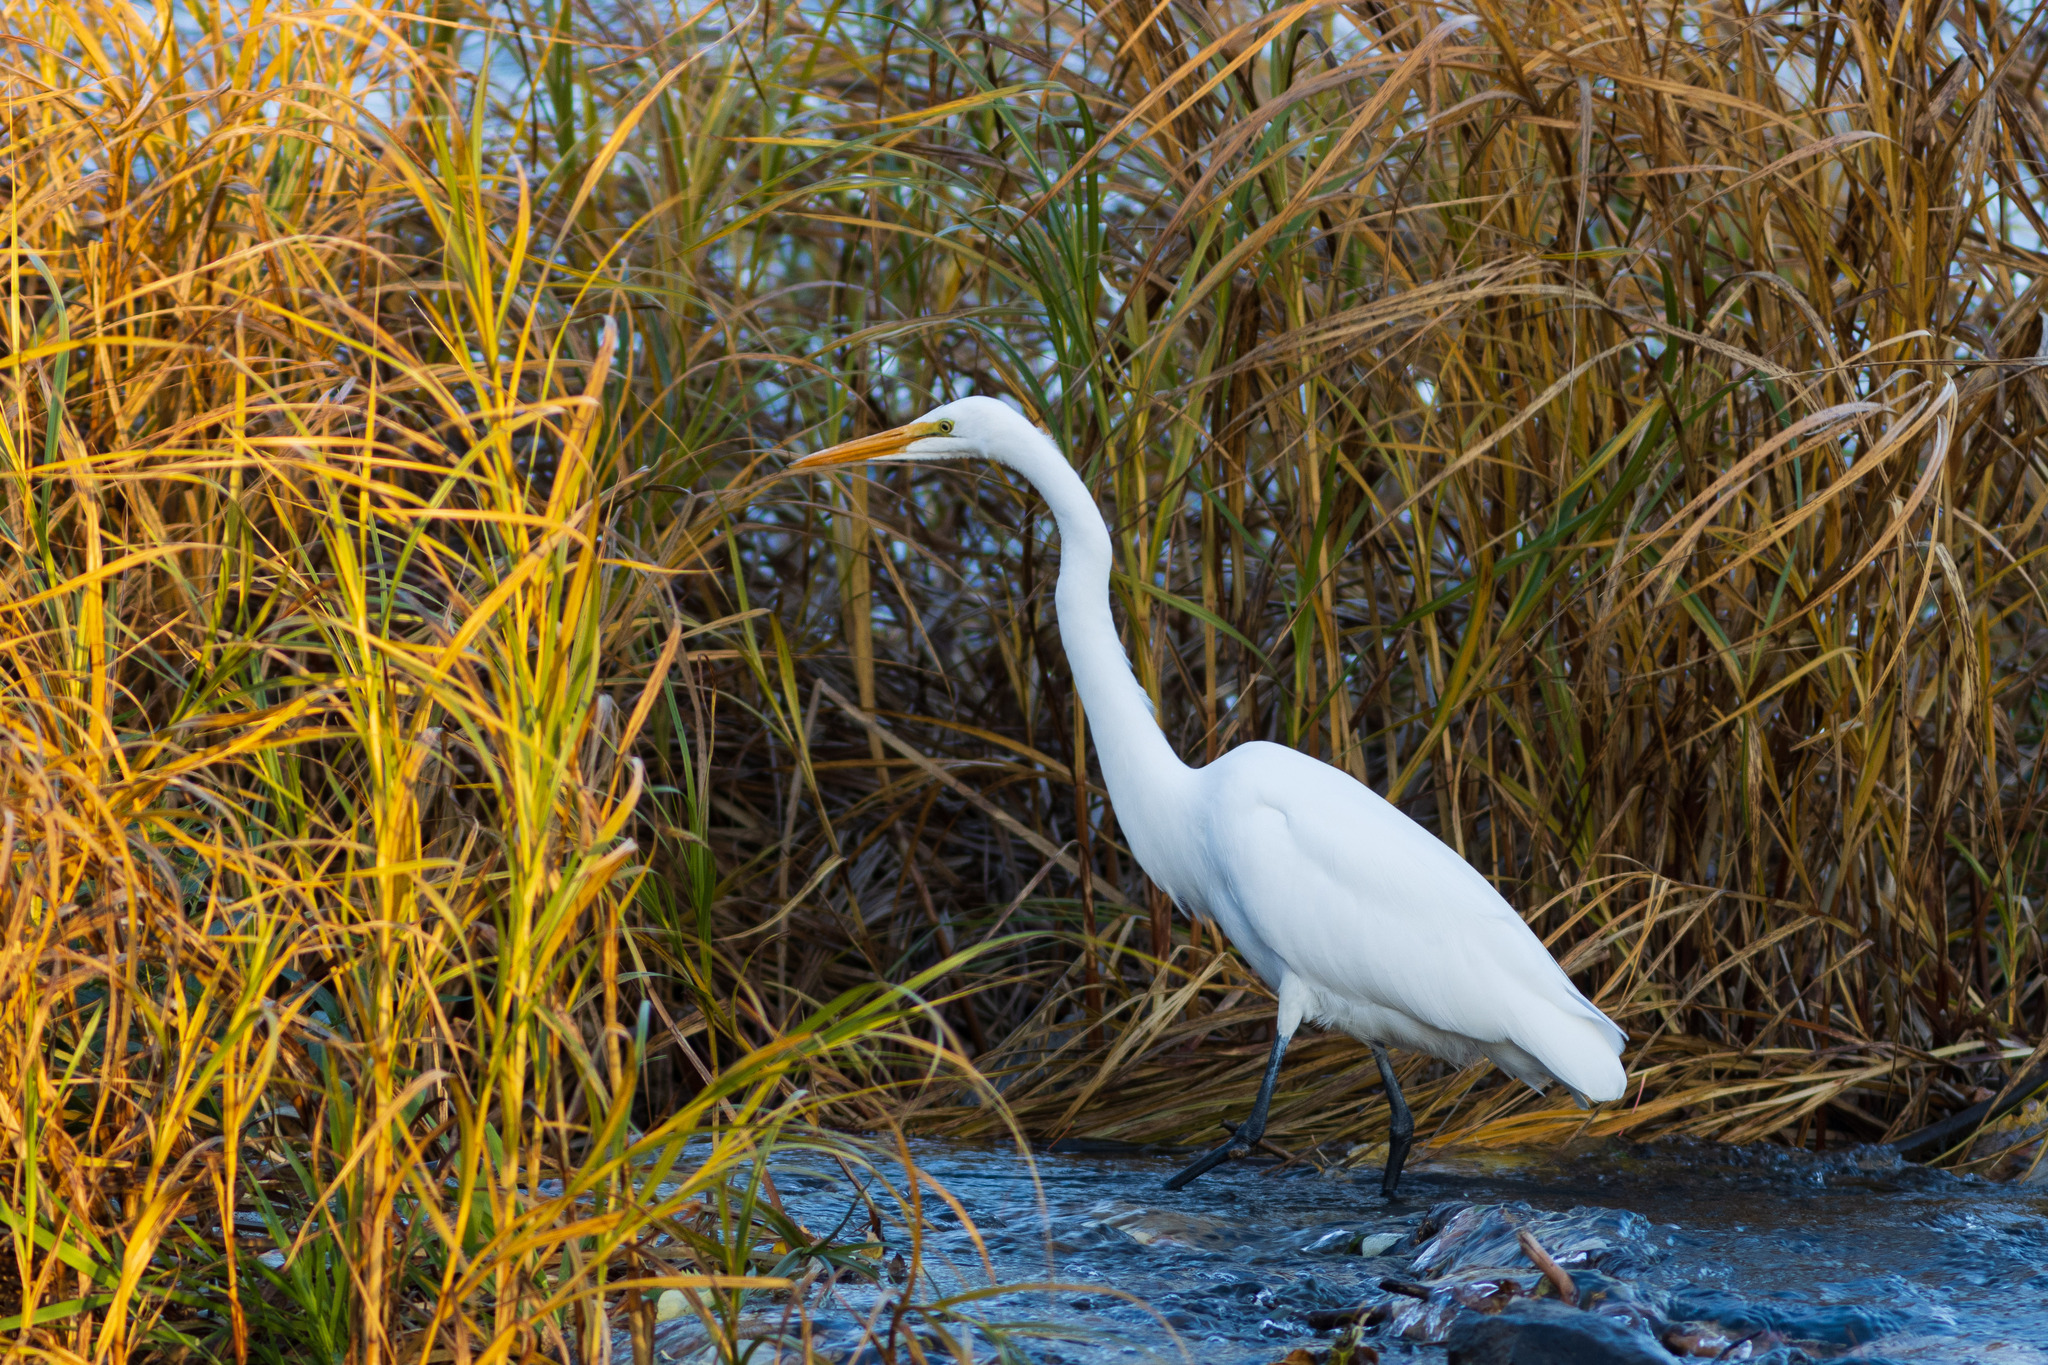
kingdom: Animalia
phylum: Chordata
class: Aves
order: Pelecaniformes
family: Ardeidae
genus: Ardea
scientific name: Ardea alba
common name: Great egret
